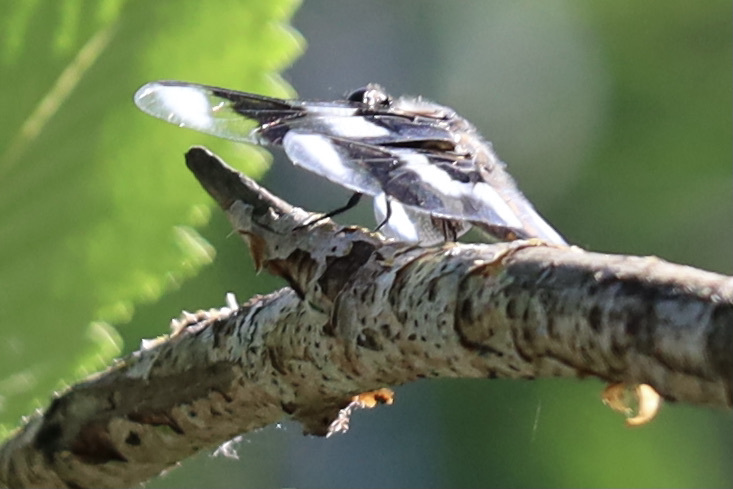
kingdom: Animalia
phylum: Arthropoda
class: Insecta
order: Odonata
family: Libellulidae
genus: Libellula
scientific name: Libellula forensis
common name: Eight-spotted skimmer
